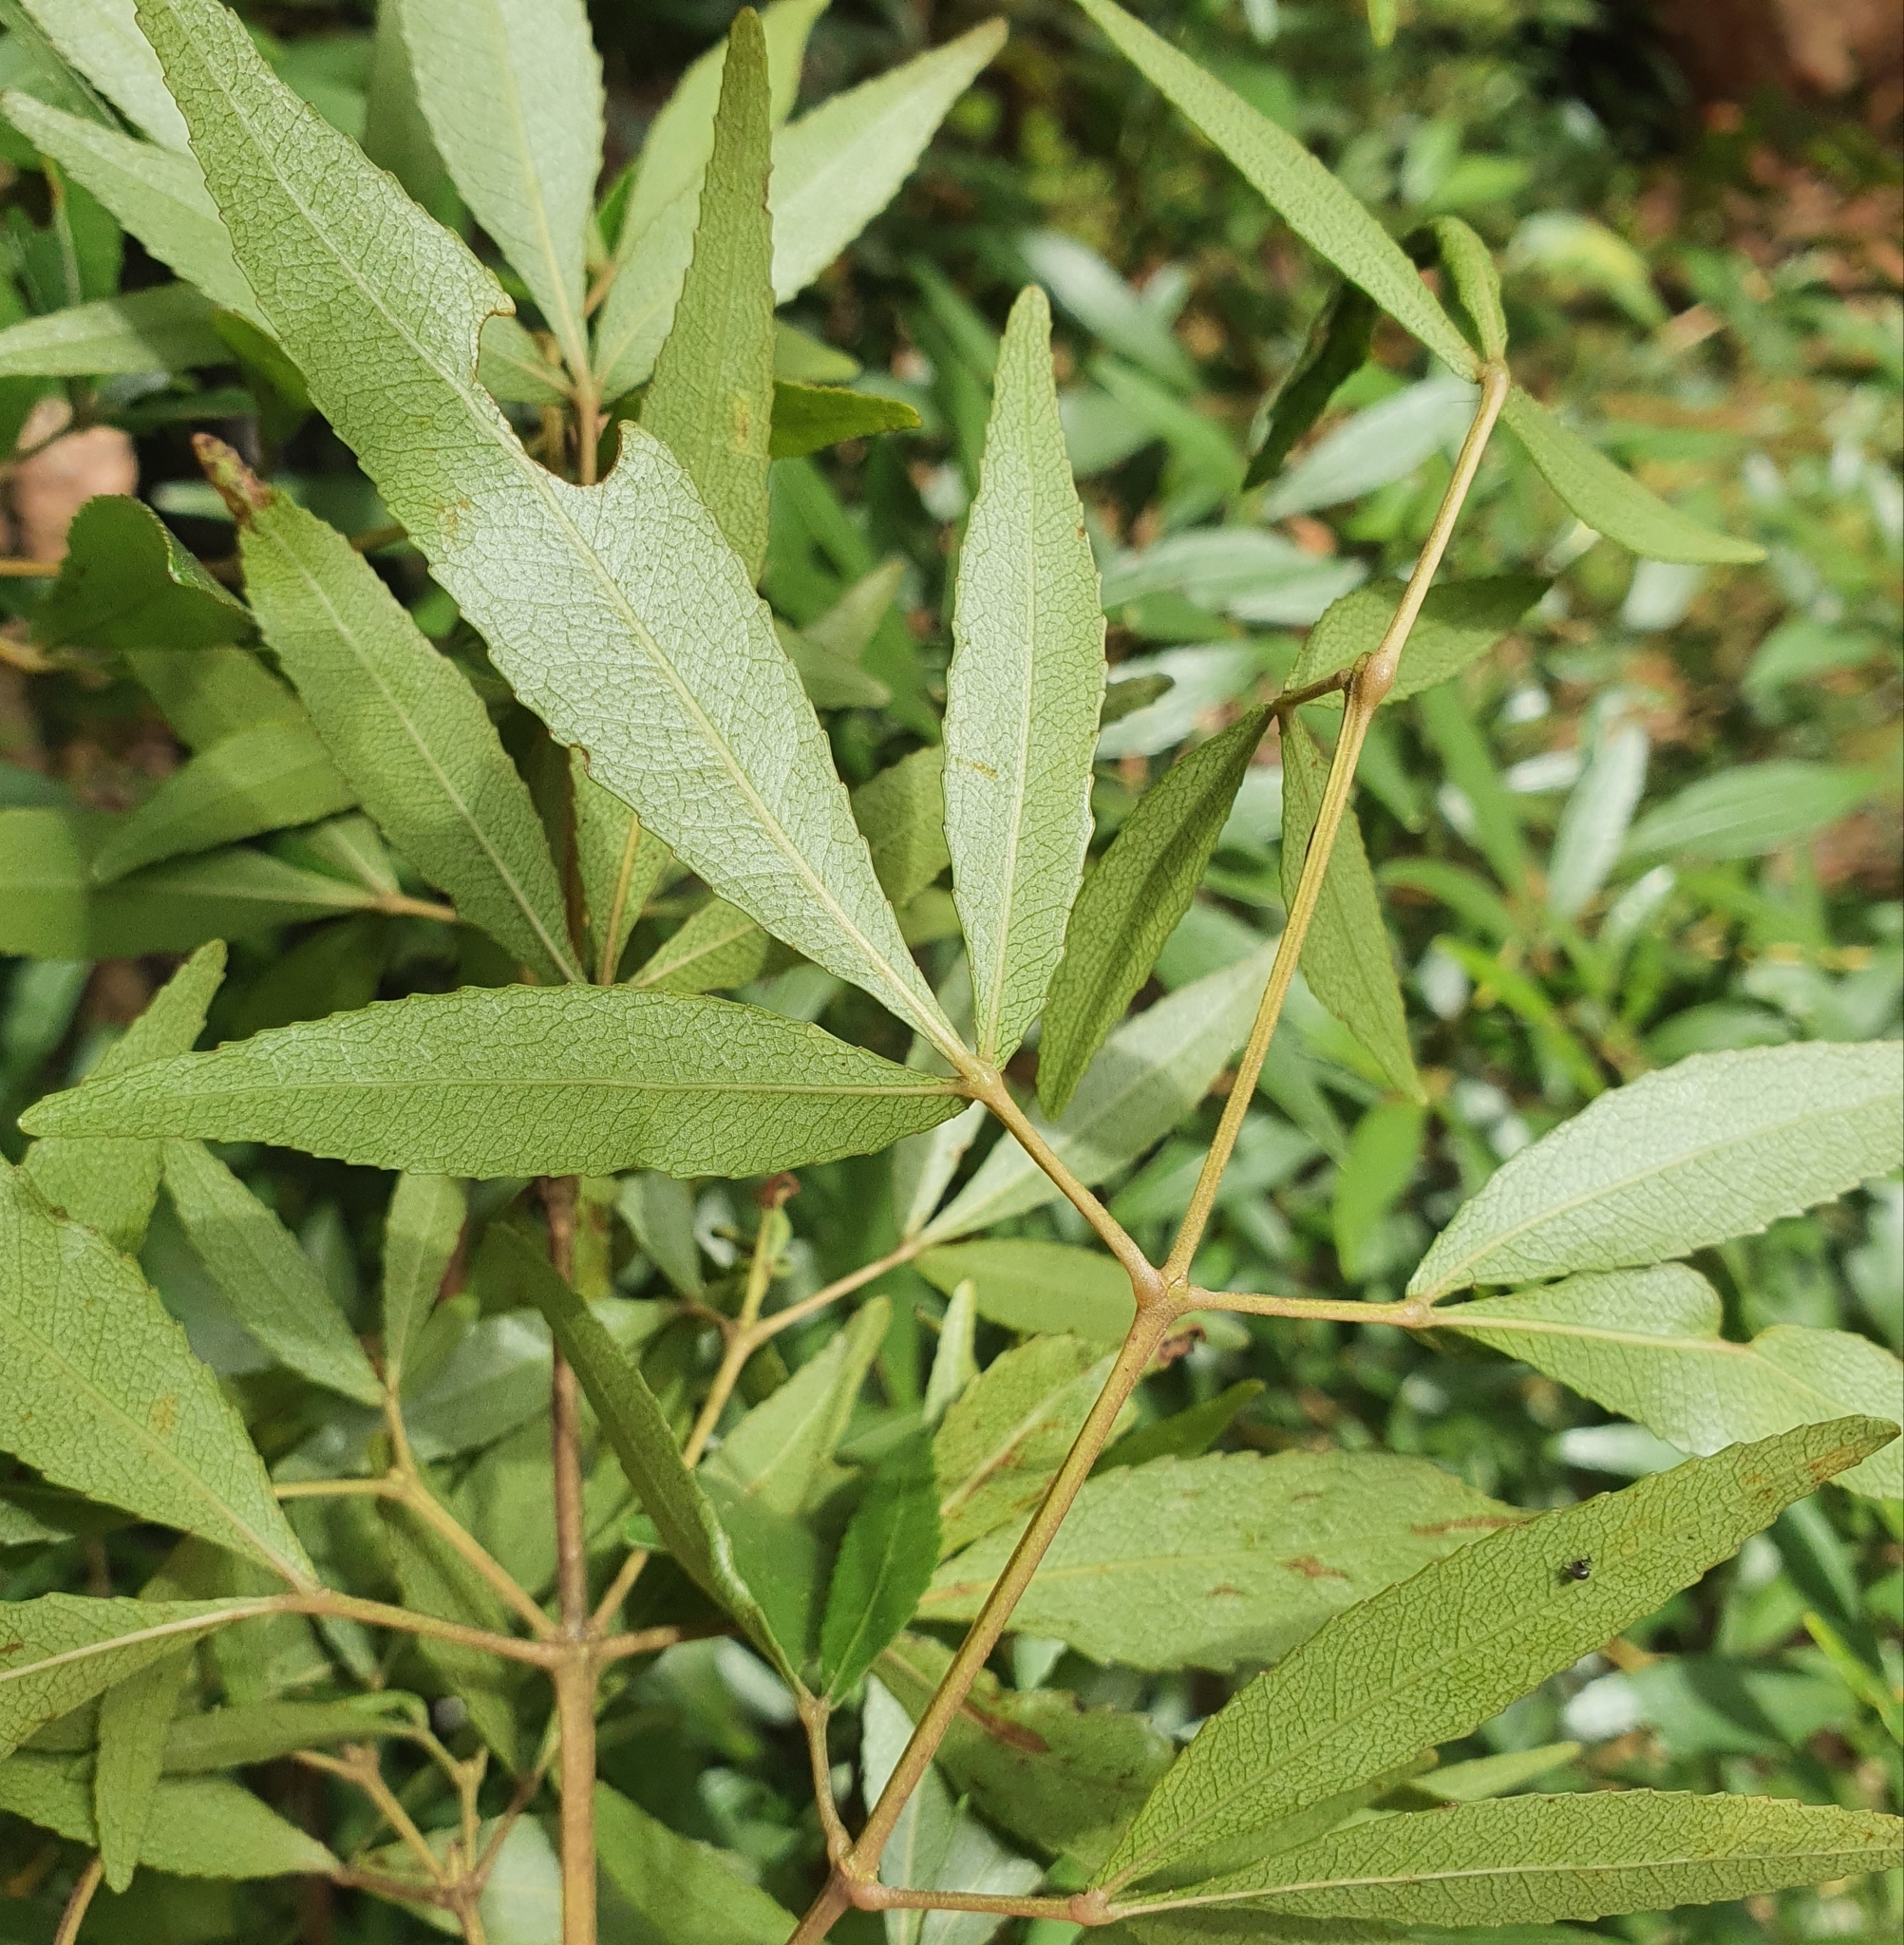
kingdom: Plantae
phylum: Tracheophyta
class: Magnoliopsida
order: Oxalidales
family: Cunoniaceae
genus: Ceratopetalum
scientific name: Ceratopetalum gummiferum
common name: Christmasbush
